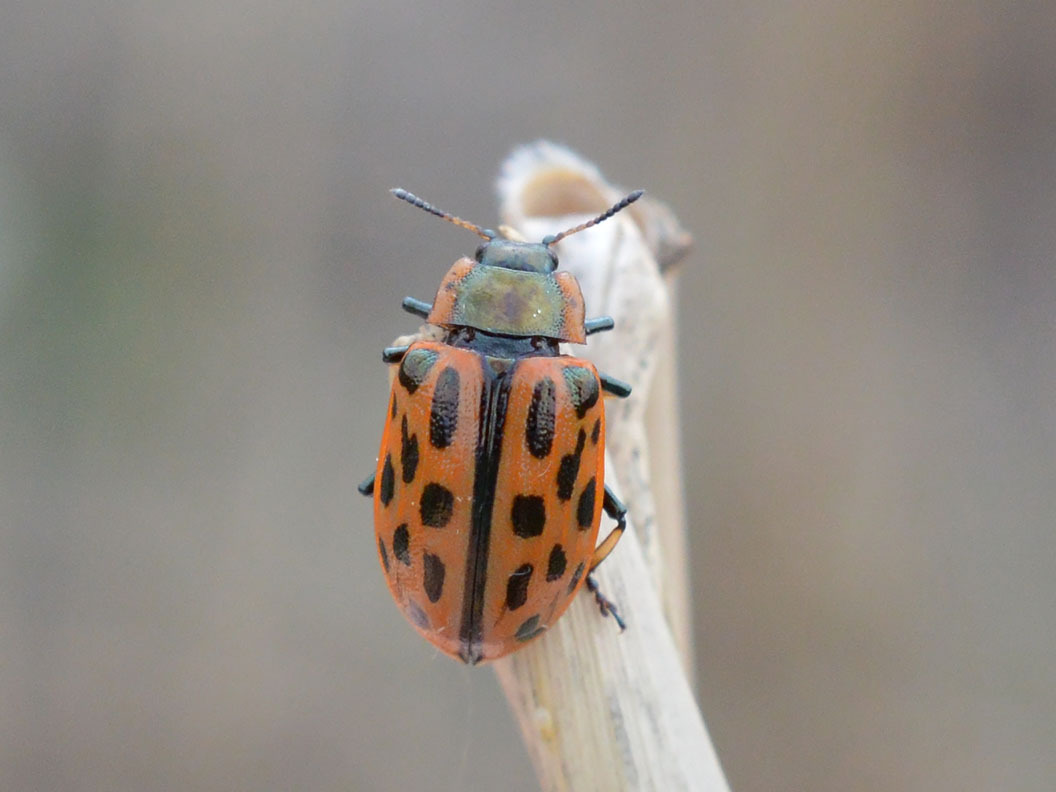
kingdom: Animalia
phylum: Arthropoda
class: Insecta
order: Coleoptera
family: Chrysomelidae
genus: Chrysomela
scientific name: Chrysomela vigintipunctata
